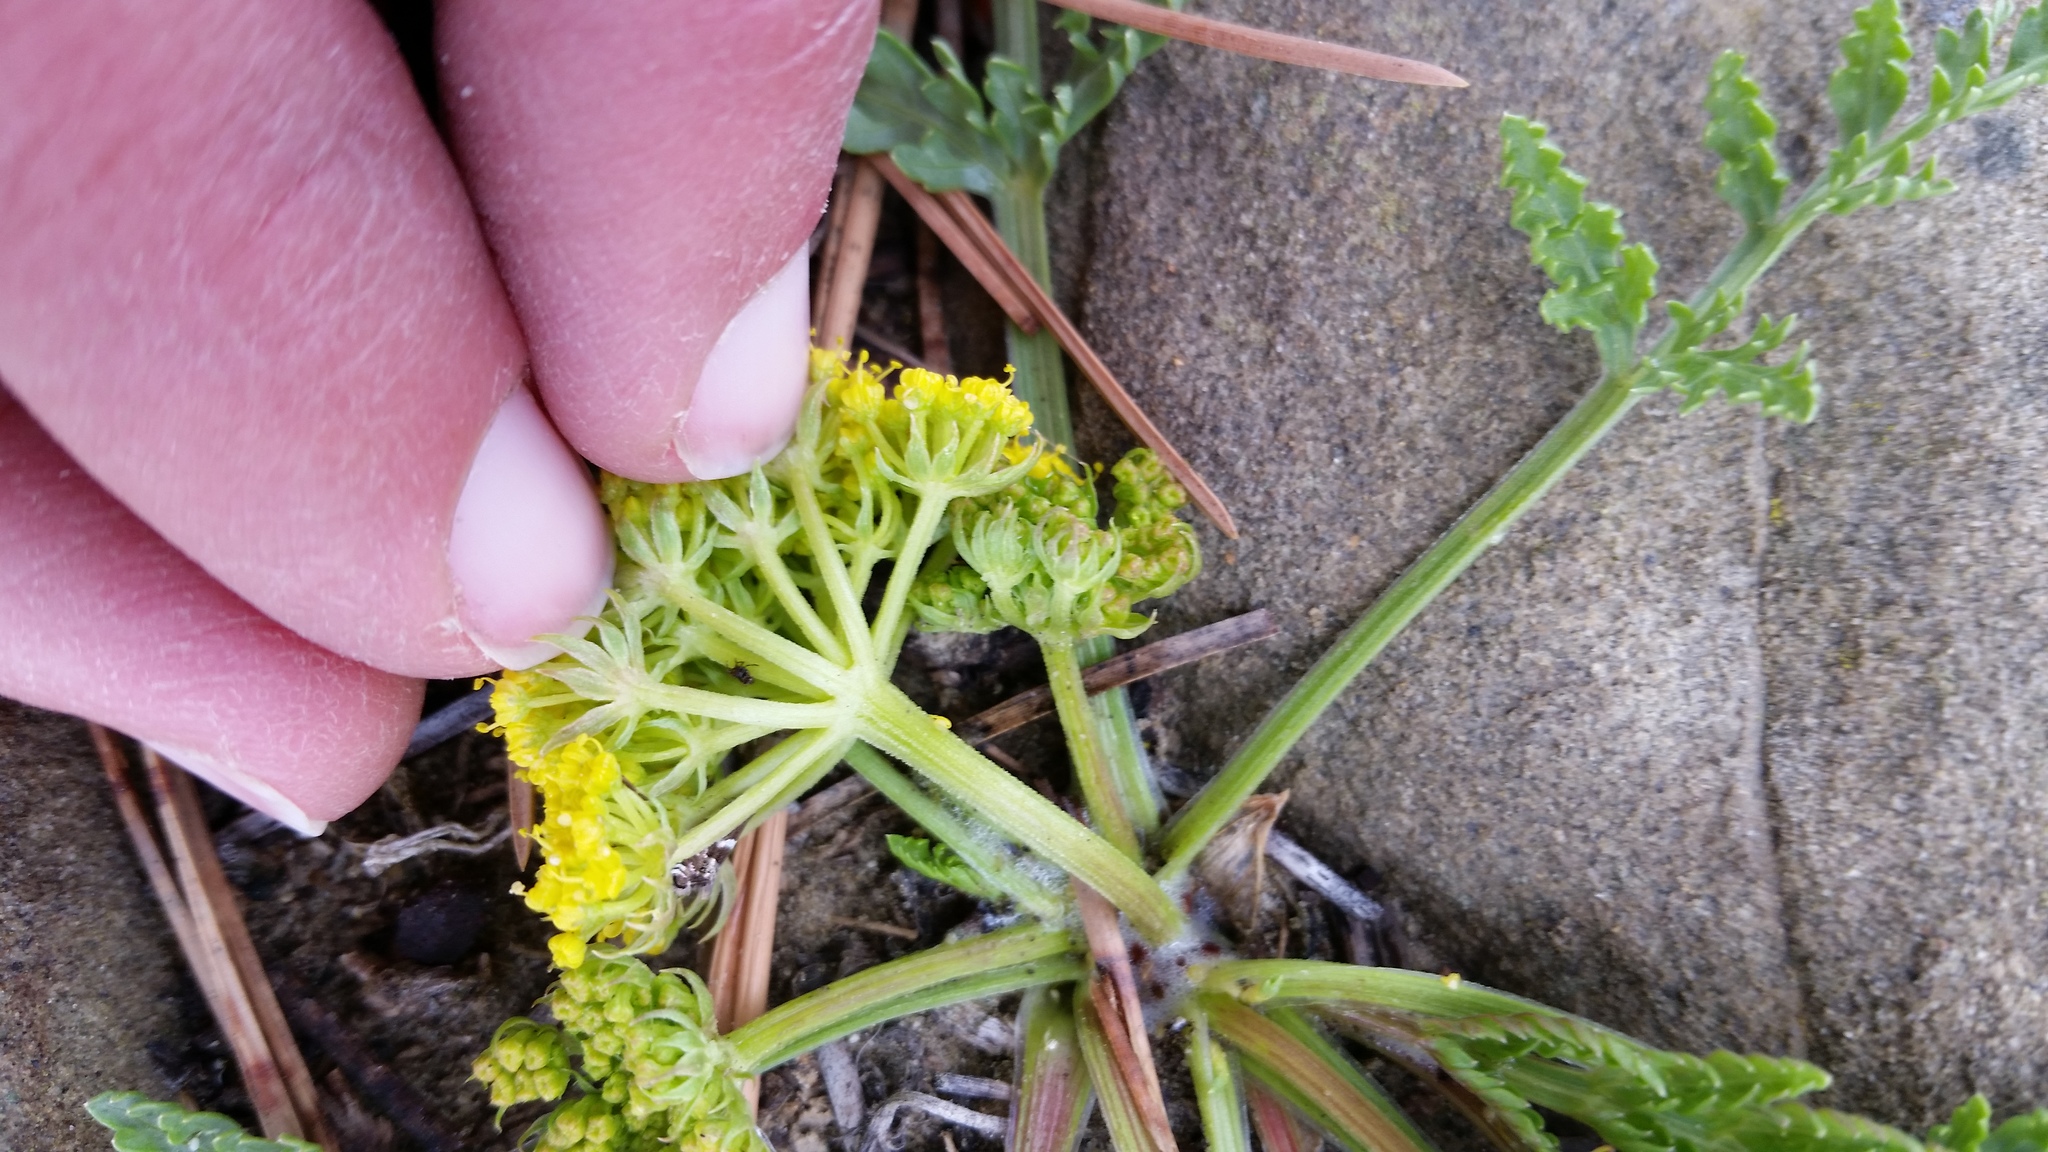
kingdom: Plantae
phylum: Tracheophyta
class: Magnoliopsida
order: Apiales
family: Apiaceae
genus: Musineon
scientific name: Musineon divaricatum
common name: Plains musineon
